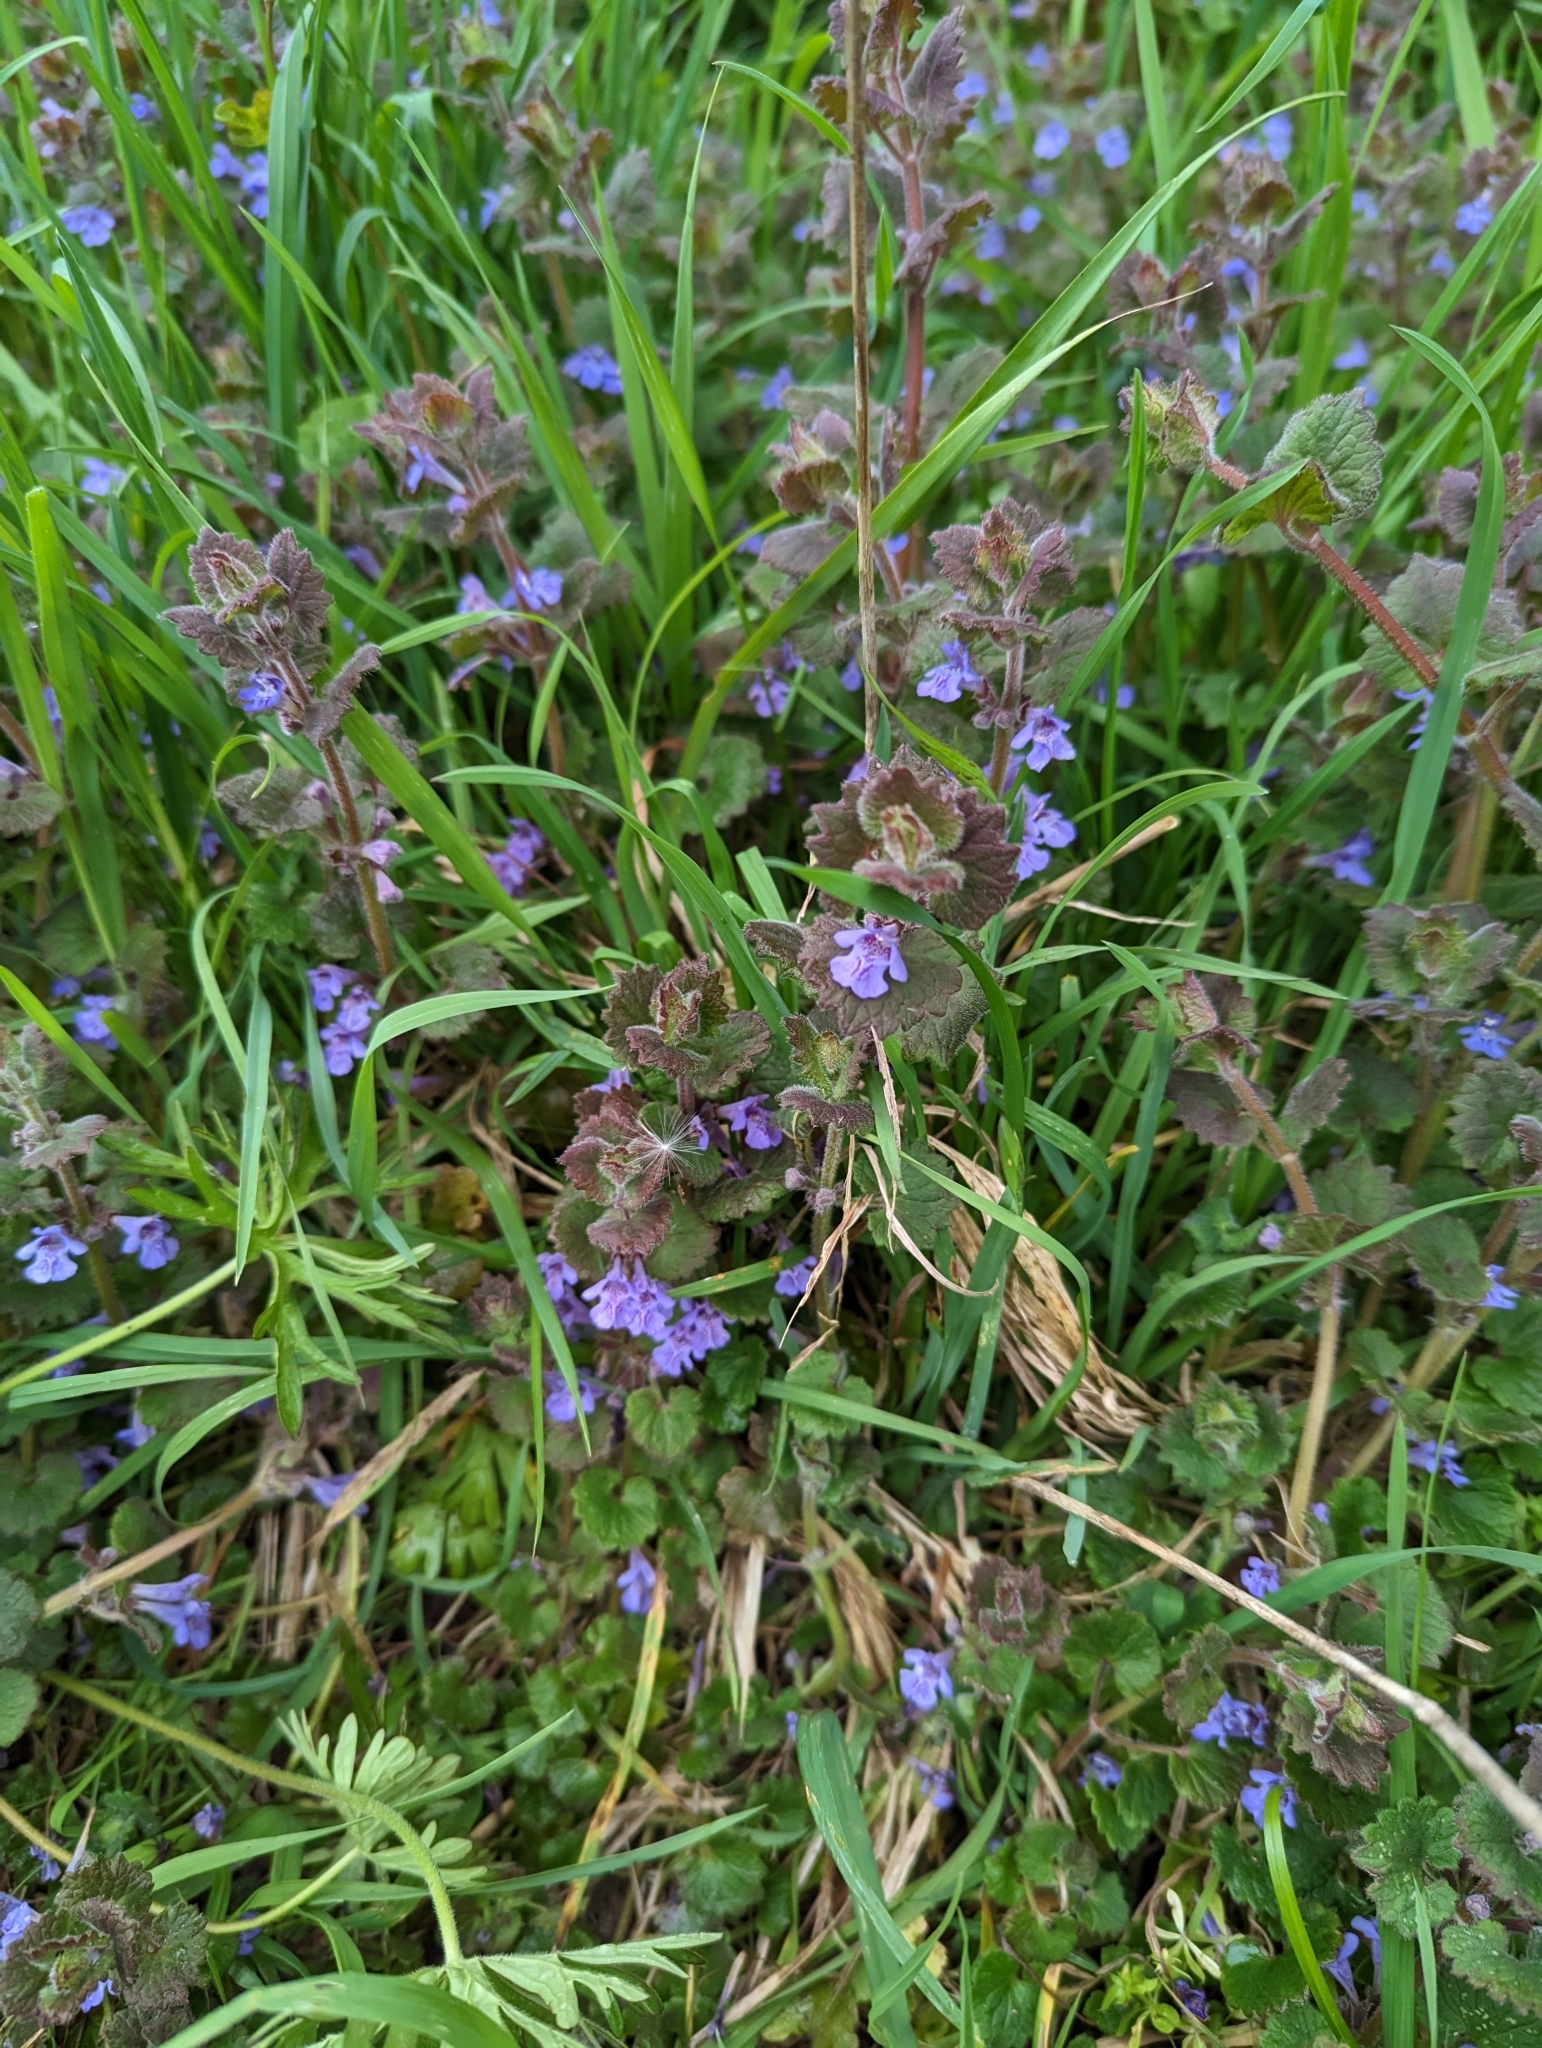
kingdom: Plantae
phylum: Tracheophyta
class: Magnoliopsida
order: Lamiales
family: Lamiaceae
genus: Glechoma
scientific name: Glechoma hederacea
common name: Ground ivy
